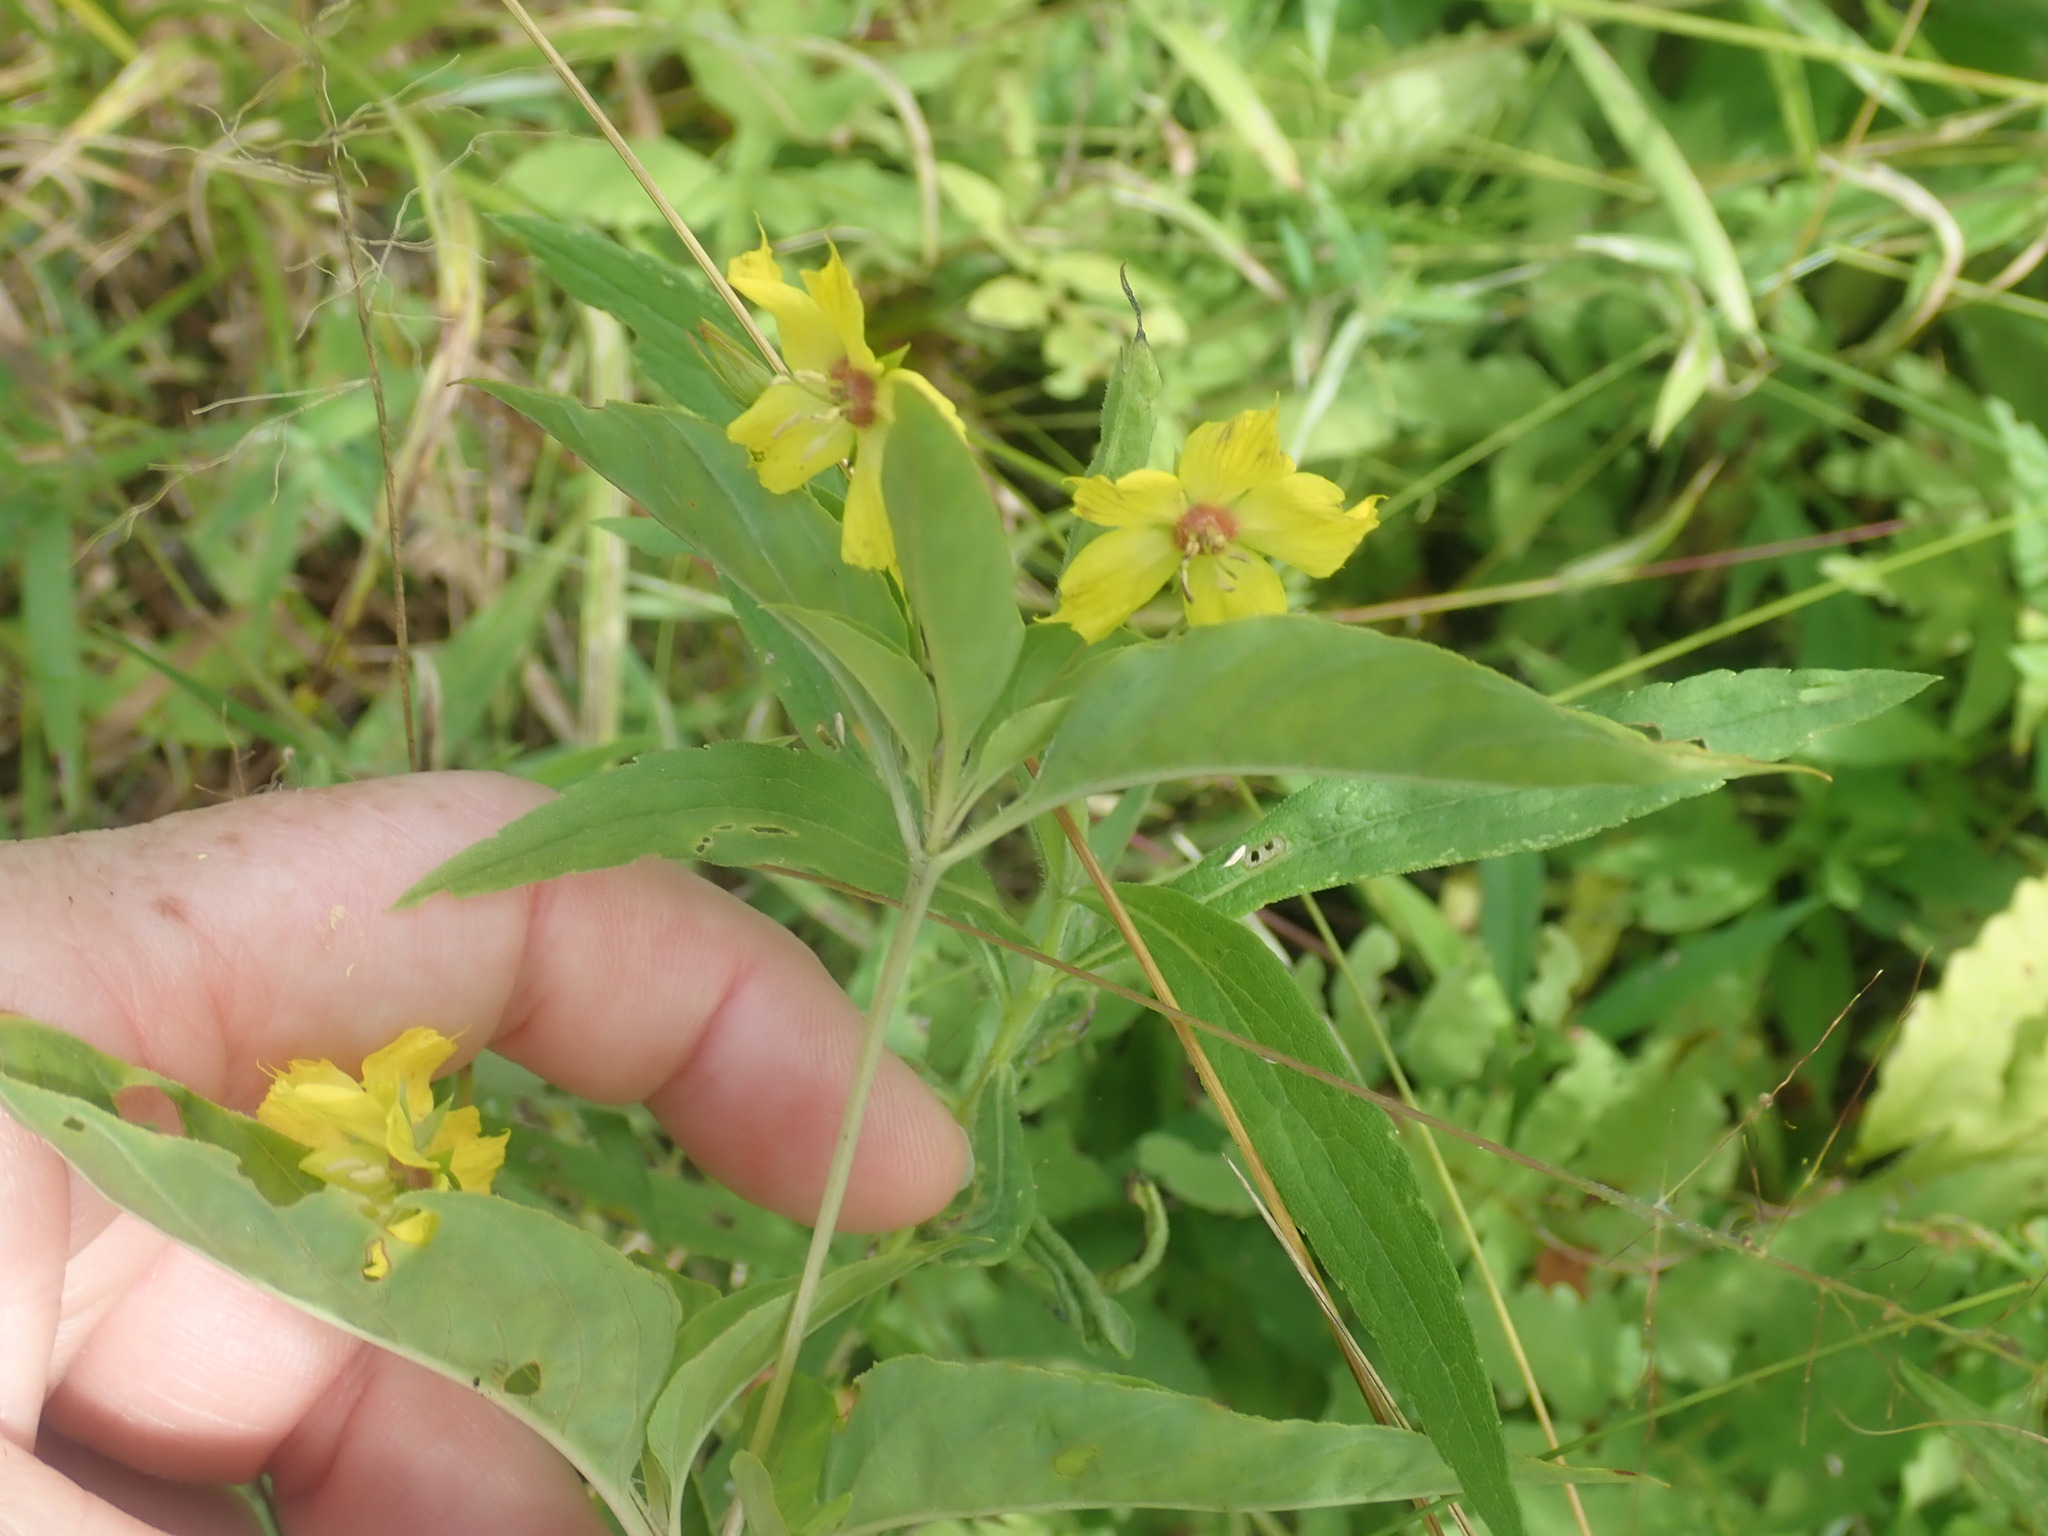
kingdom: Plantae
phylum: Tracheophyta
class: Magnoliopsida
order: Ericales
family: Primulaceae
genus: Lysimachia
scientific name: Lysimachia ciliata
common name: Fringed loosestrife
